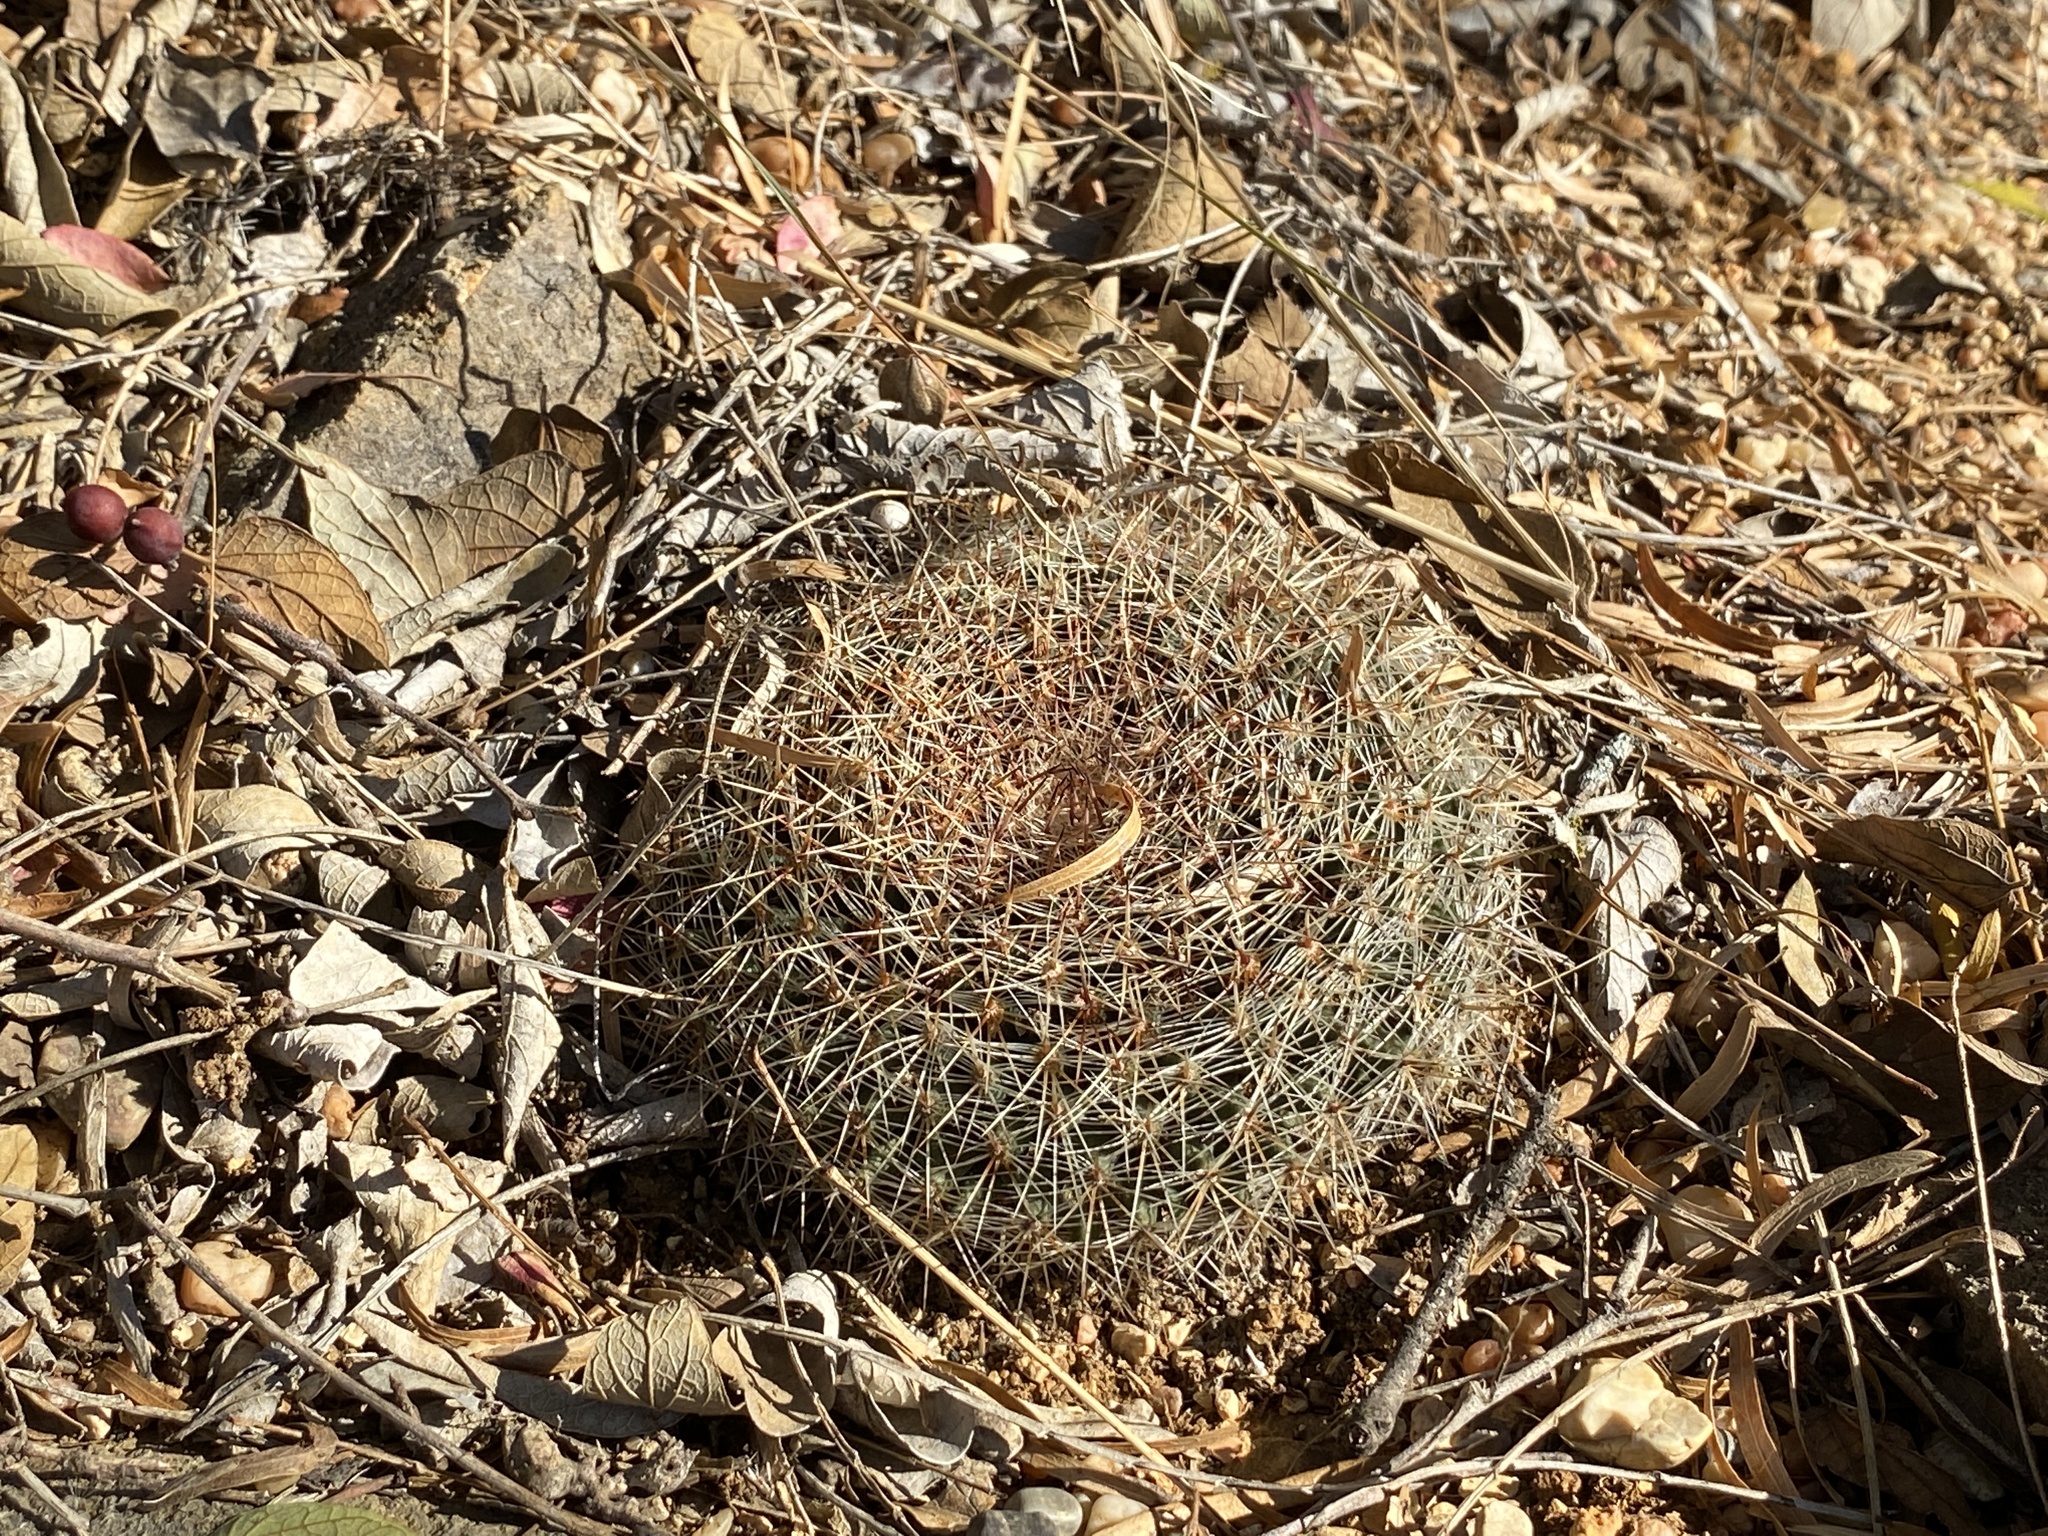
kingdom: Plantae
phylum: Tracheophyta
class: Magnoliopsida
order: Caryophyllales
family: Cactaceae
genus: Mammillaria
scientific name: Mammillaria heyderi
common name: Little nipple cactus
